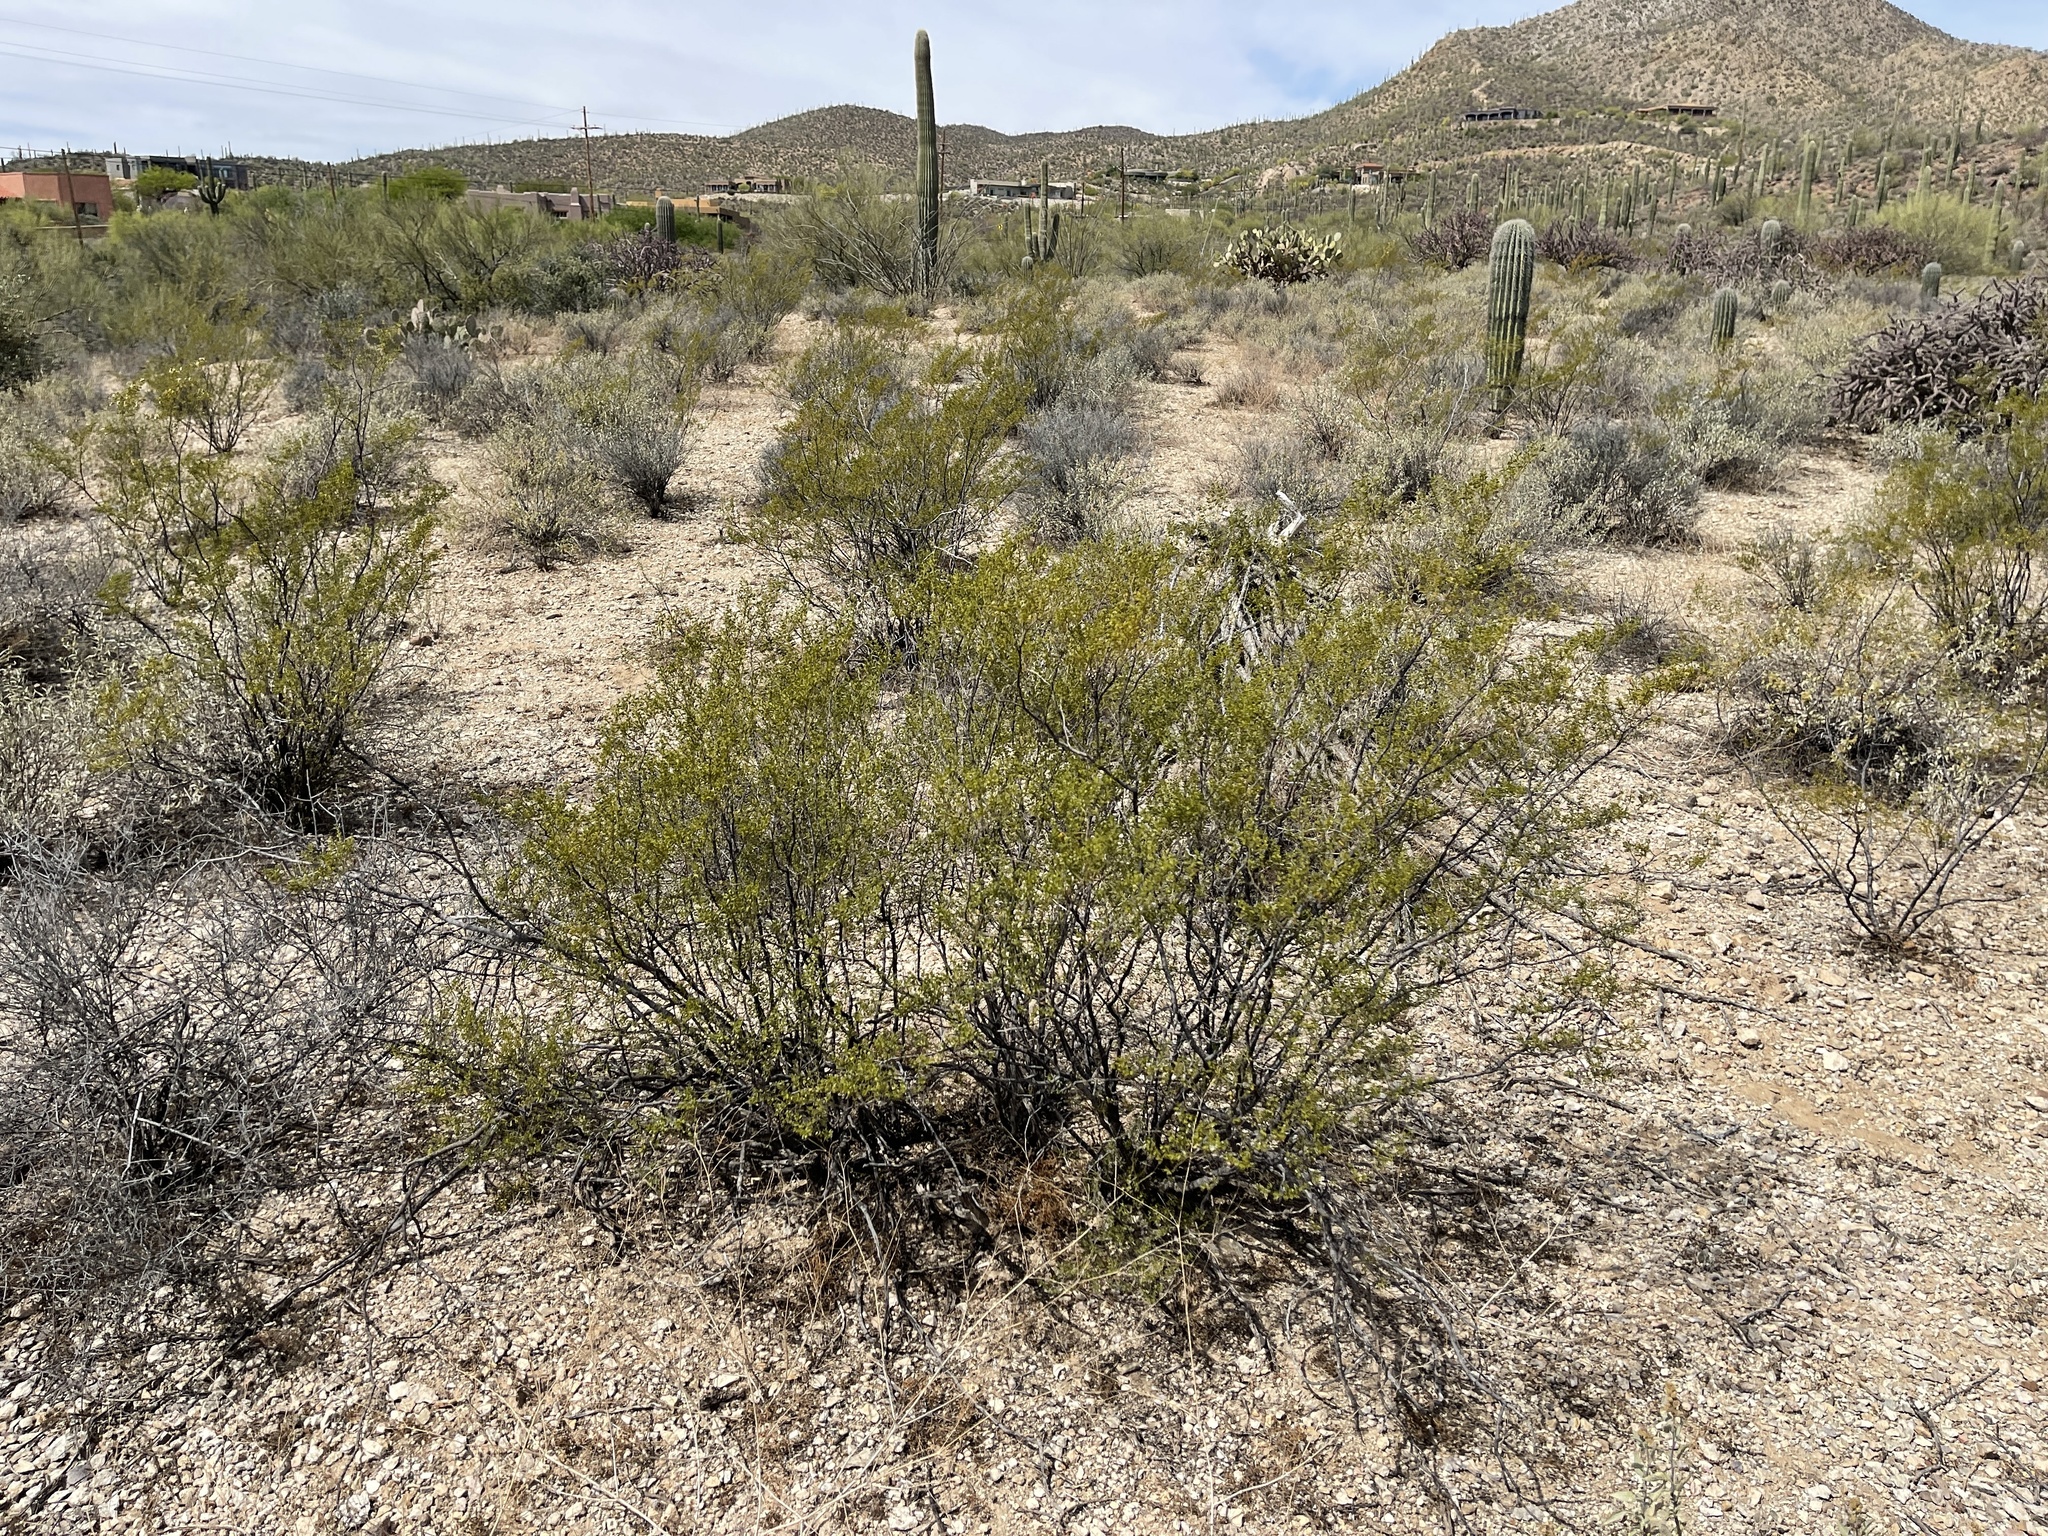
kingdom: Plantae
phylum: Tracheophyta
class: Magnoliopsida
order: Zygophyllales
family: Zygophyllaceae
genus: Larrea
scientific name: Larrea tridentata
